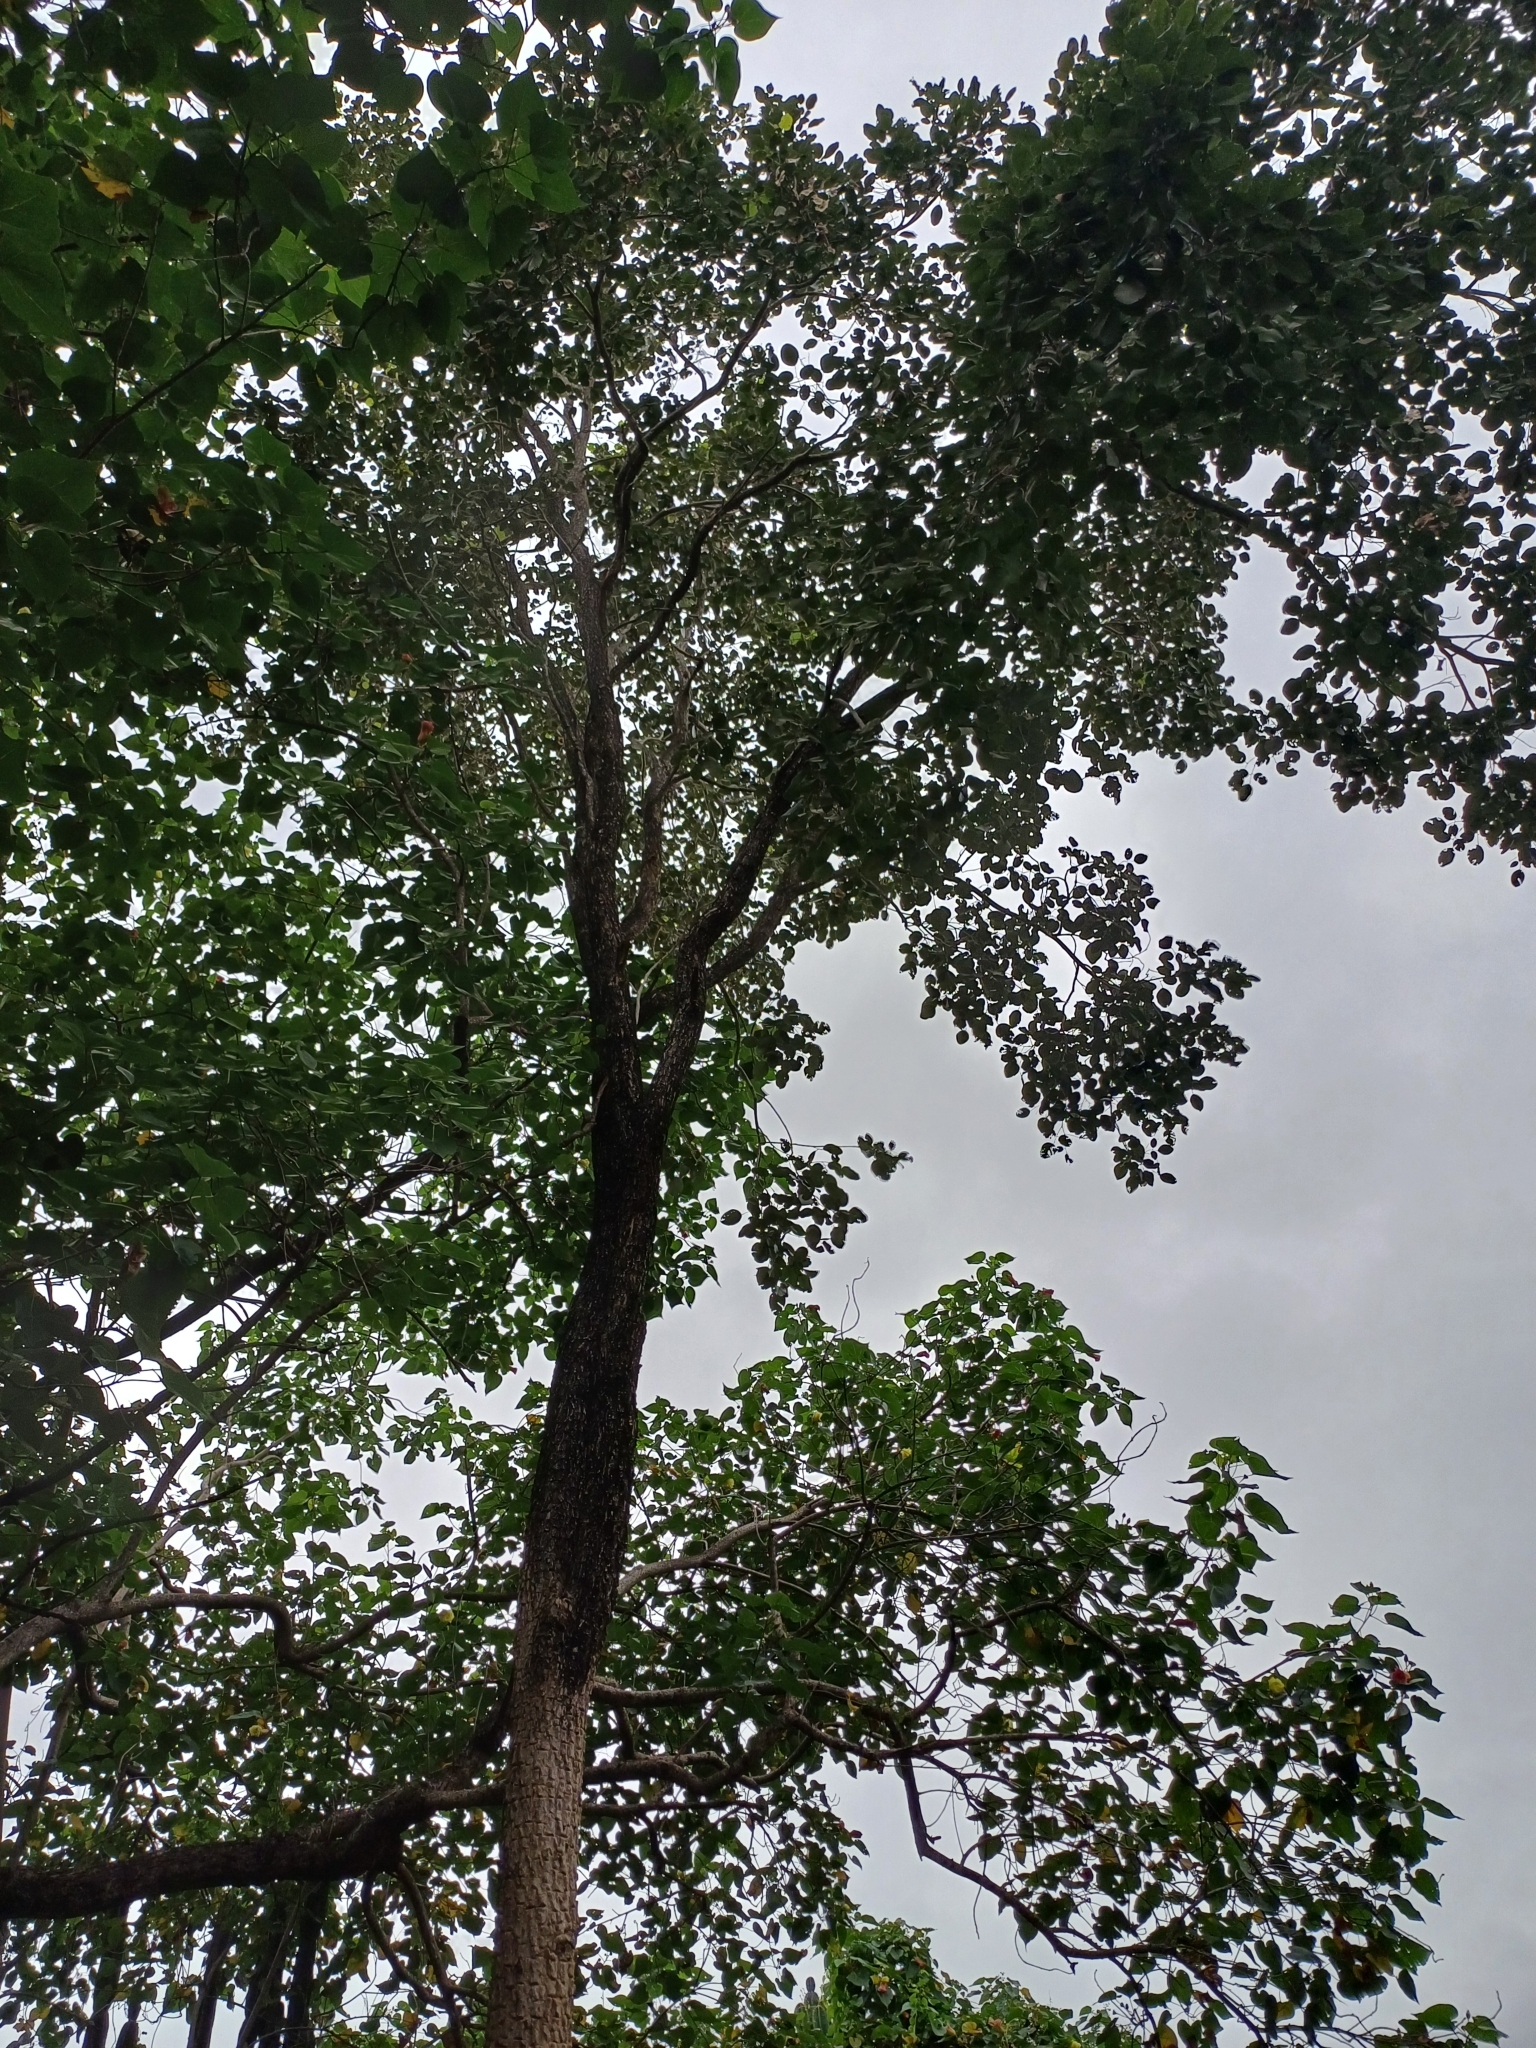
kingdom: Plantae
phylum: Tracheophyta
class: Magnoliopsida
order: Fabales
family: Fabaceae
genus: Pterocarpus
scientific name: Pterocarpus santalinus
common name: Red sanders
